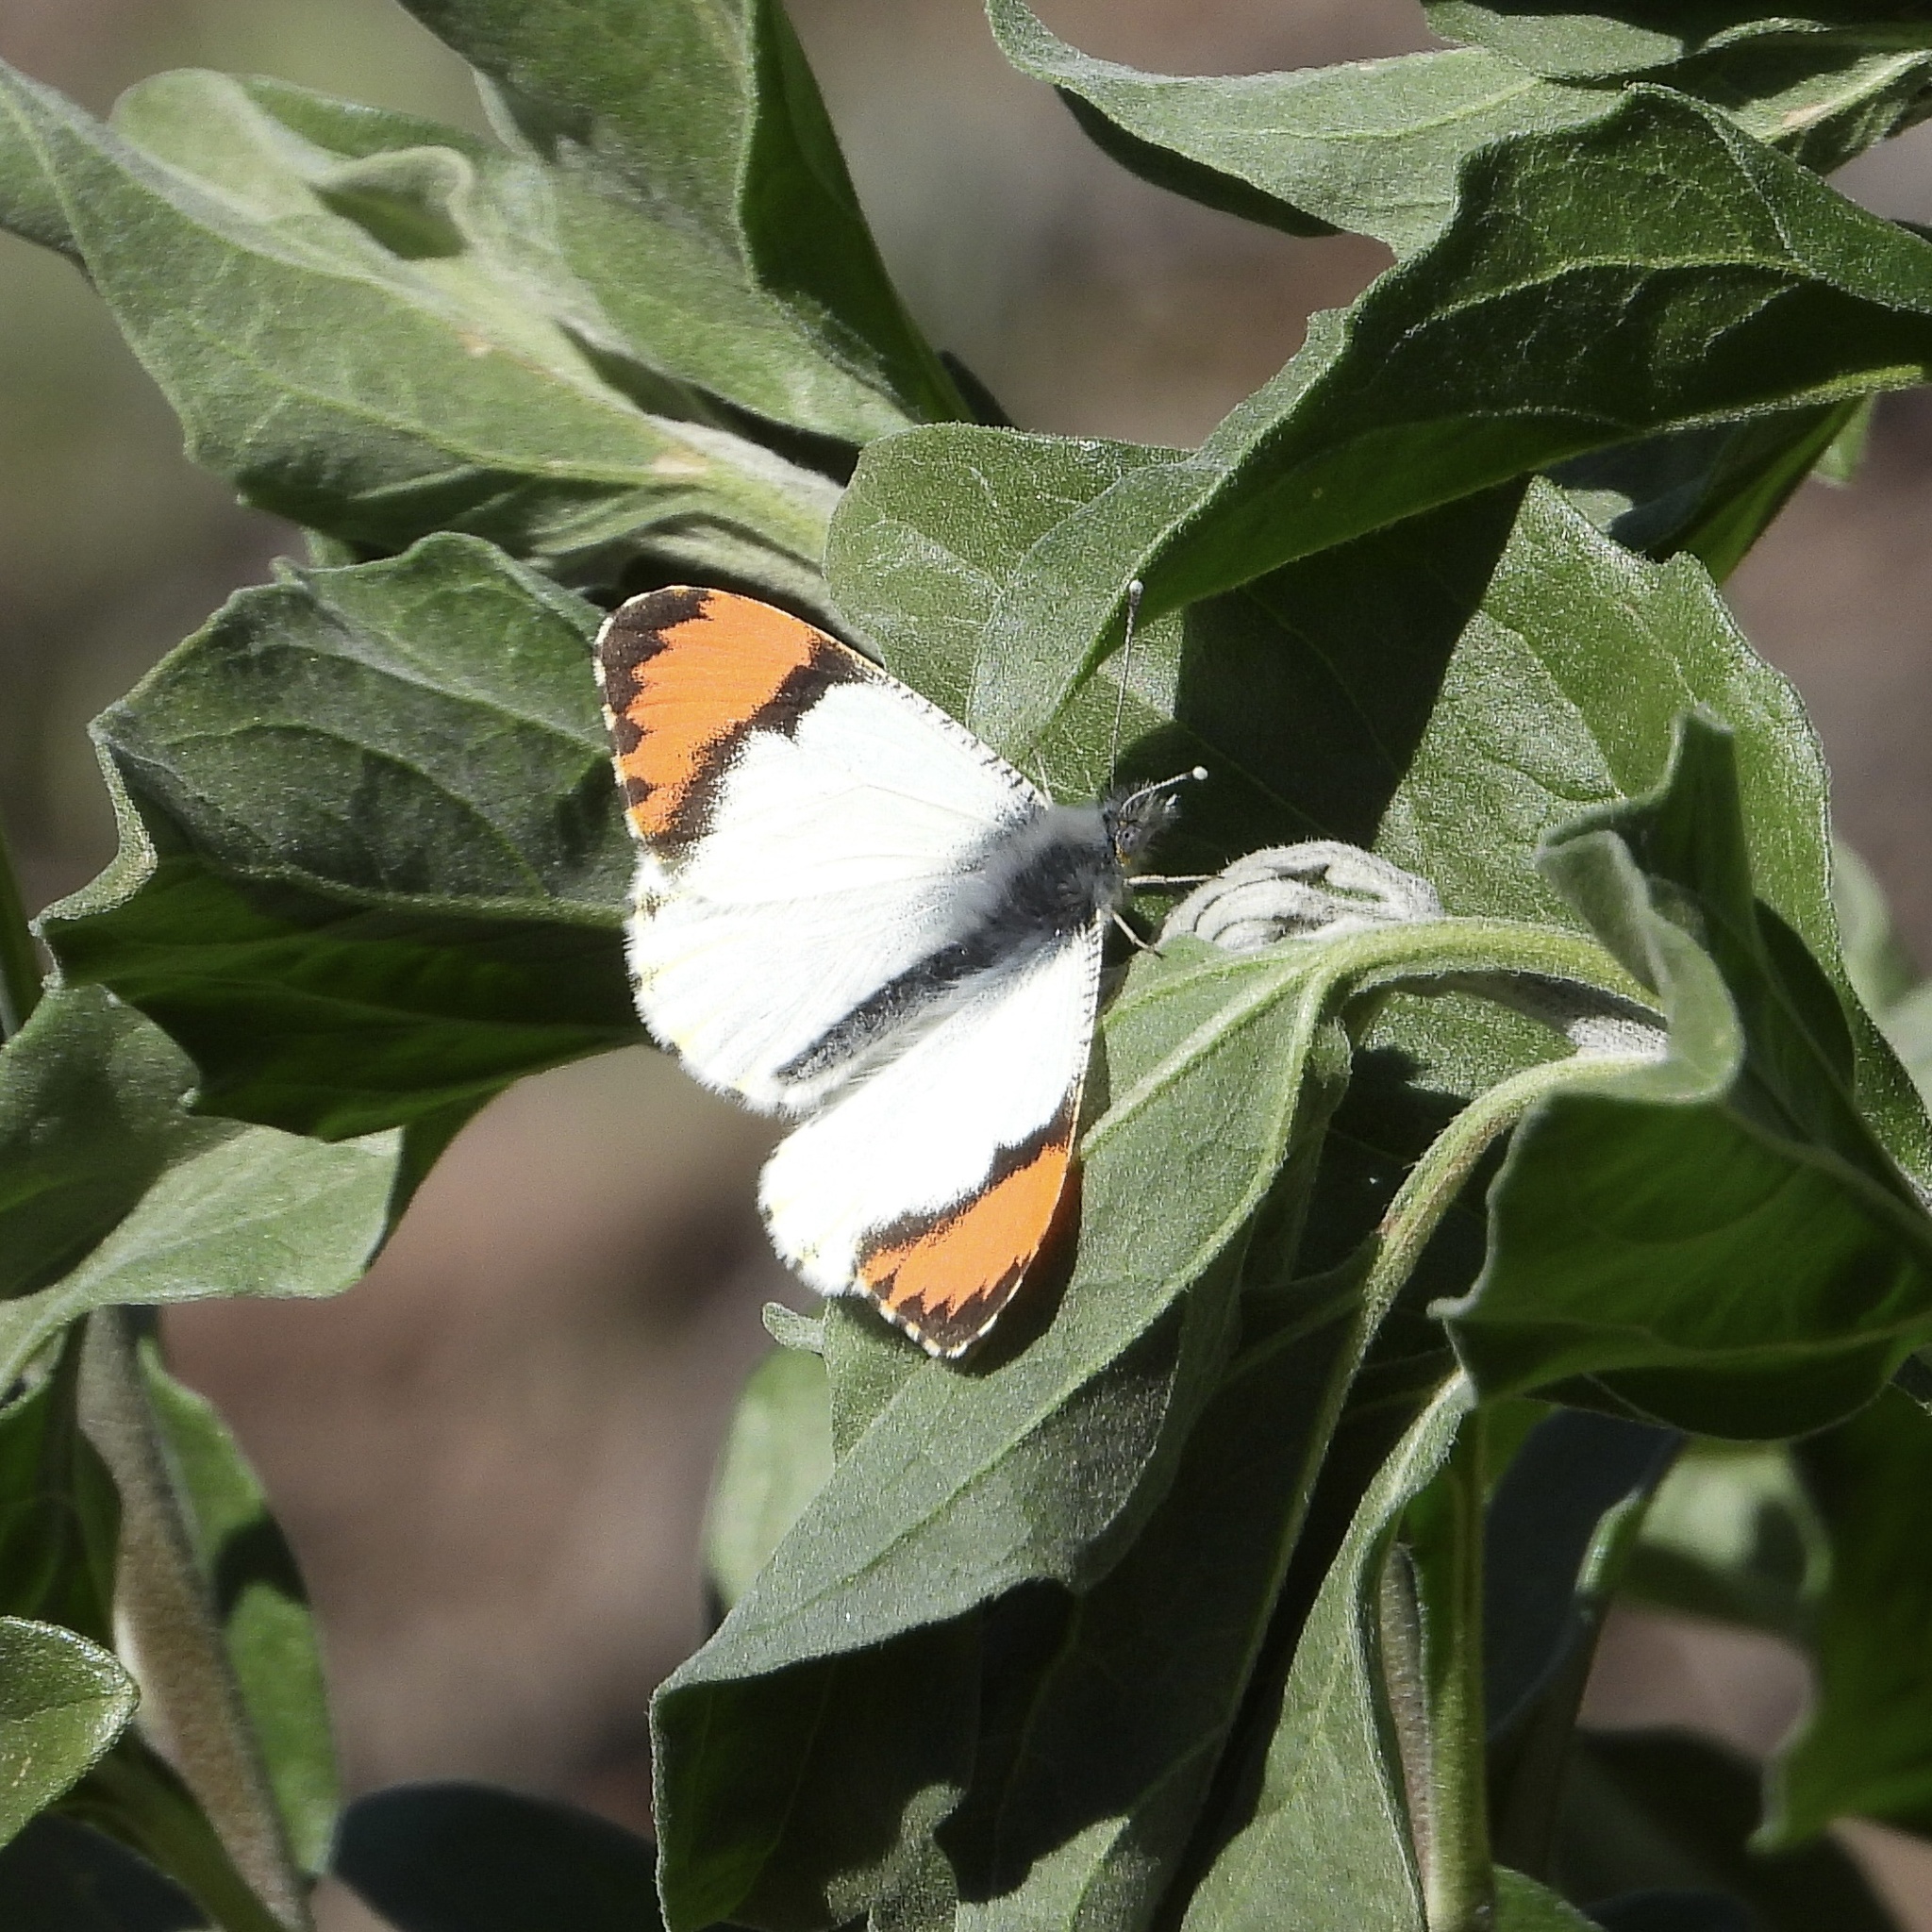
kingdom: Animalia
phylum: Arthropoda
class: Insecta
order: Lepidoptera
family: Pieridae
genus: Anthocharis
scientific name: Anthocharis sara
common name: Sara's orangetip
